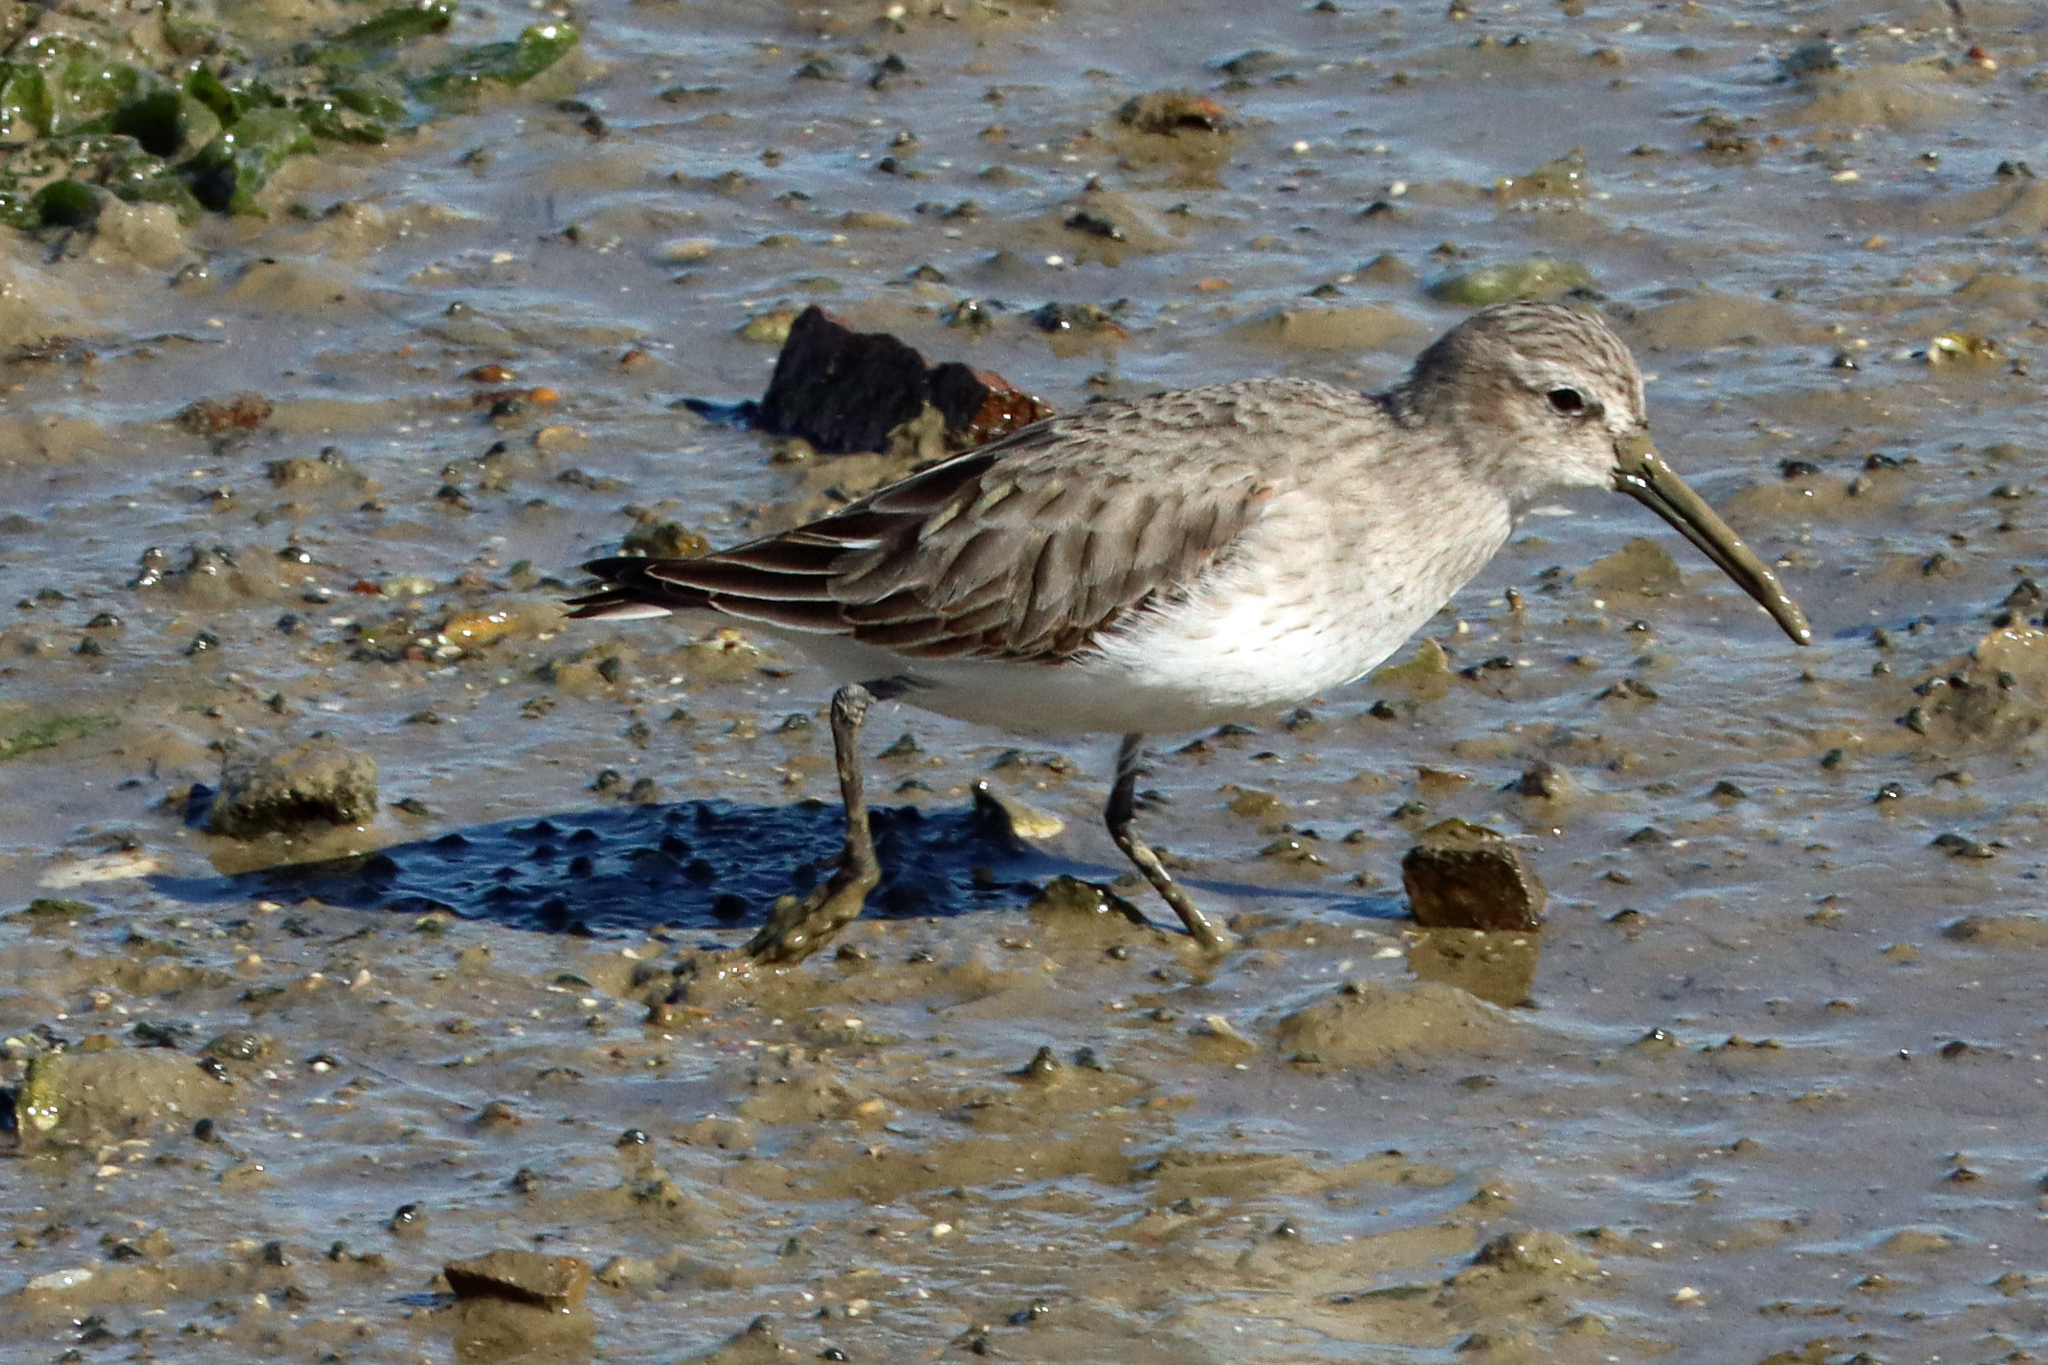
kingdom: Animalia
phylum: Chordata
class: Aves
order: Charadriiformes
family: Scolopacidae
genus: Calidris
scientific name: Calidris alpina
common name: Dunlin
